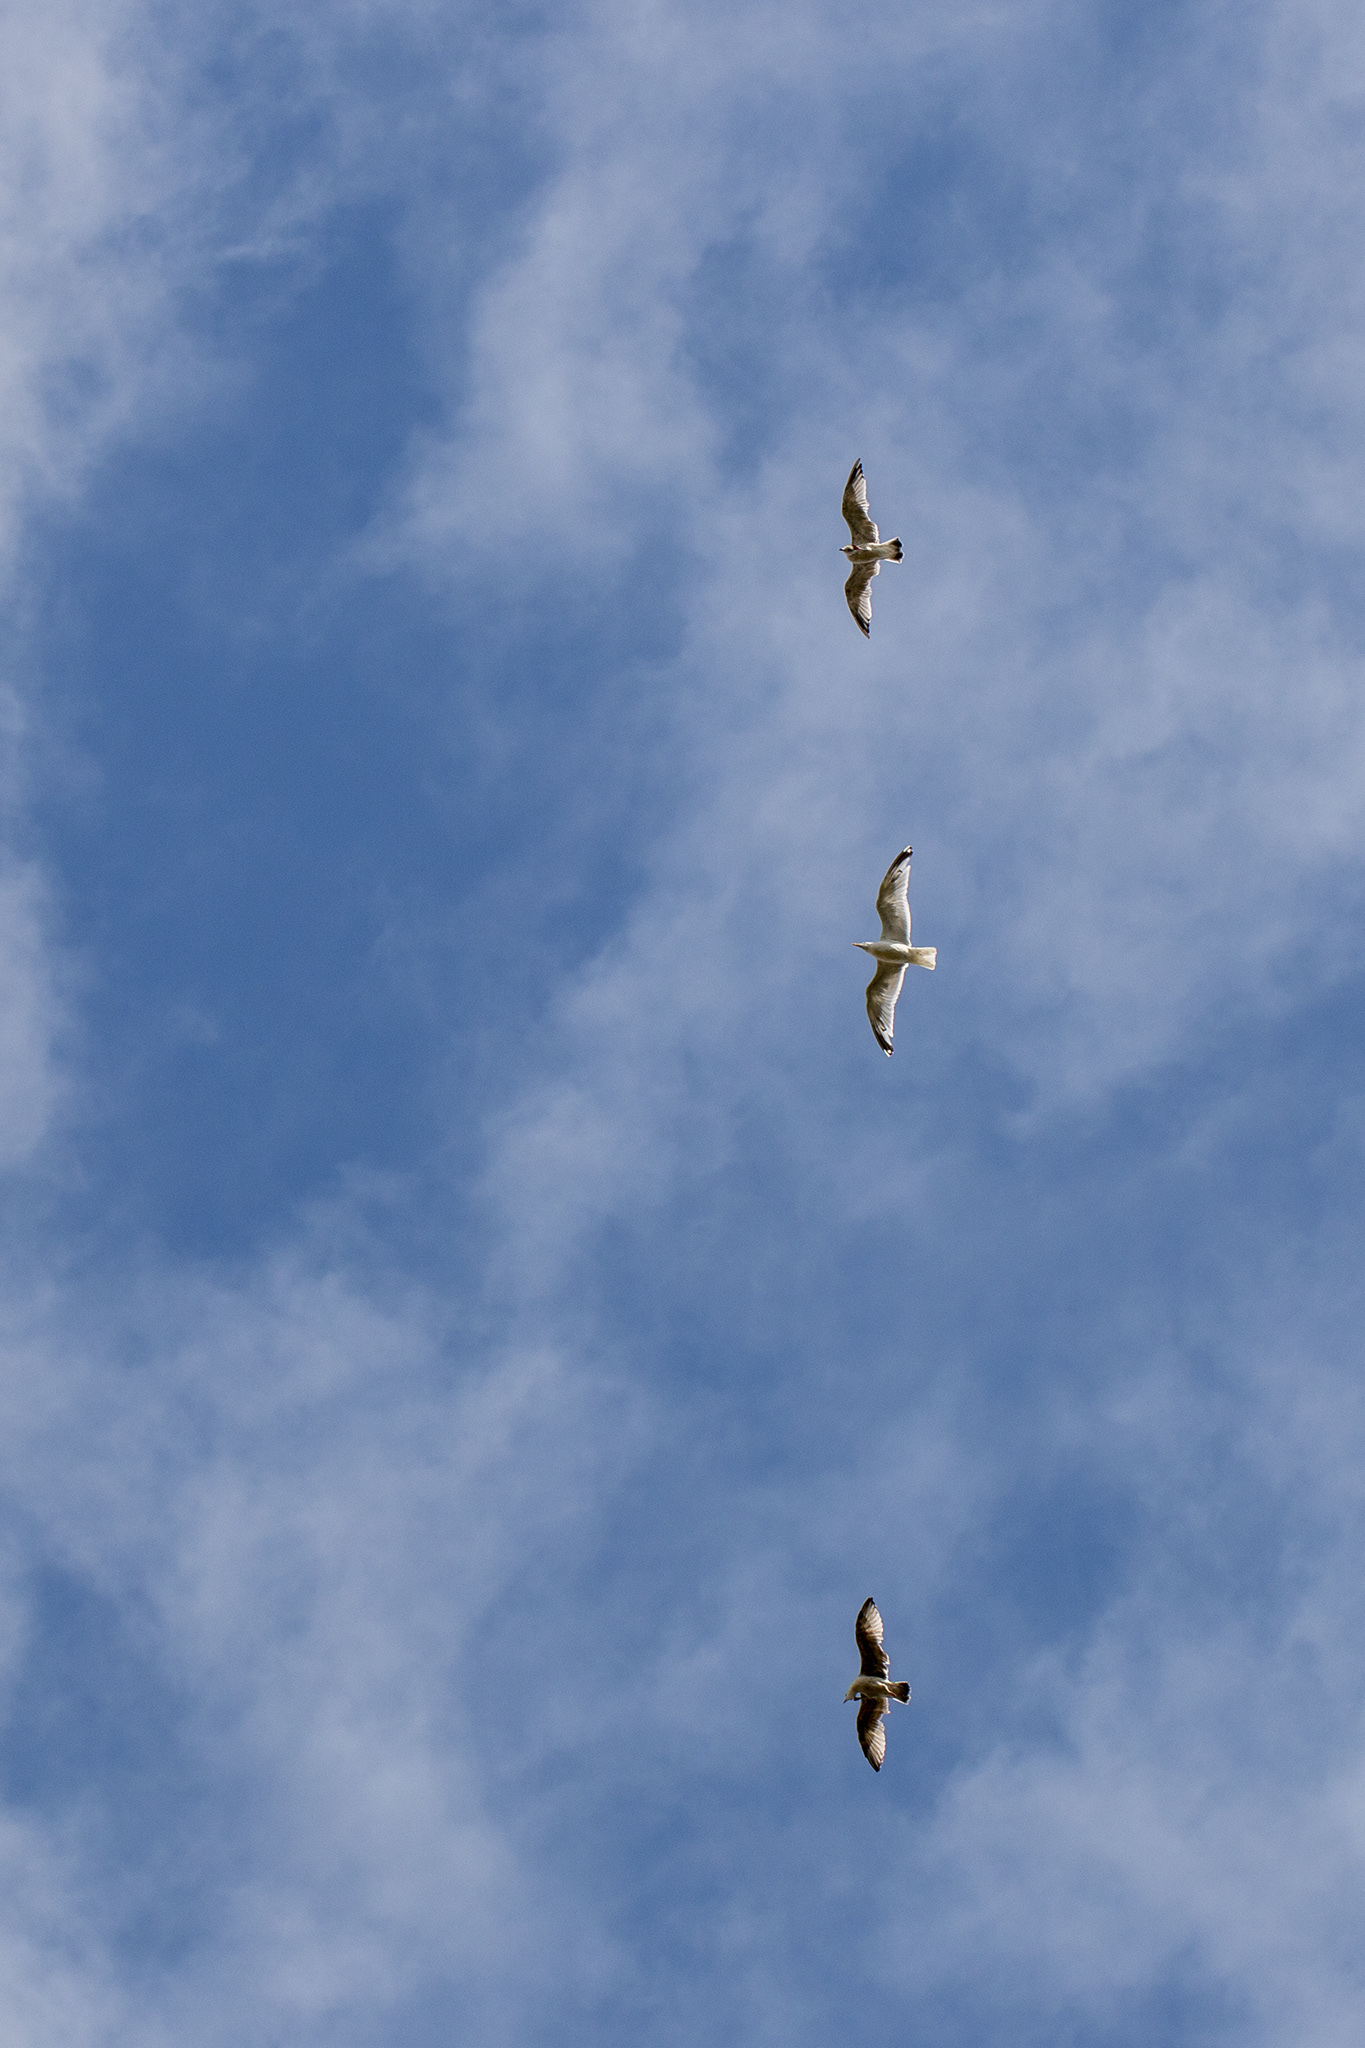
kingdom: Animalia
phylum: Chordata
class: Aves
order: Charadriiformes
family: Laridae
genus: Larus
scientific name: Larus canus
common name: Mew gull
